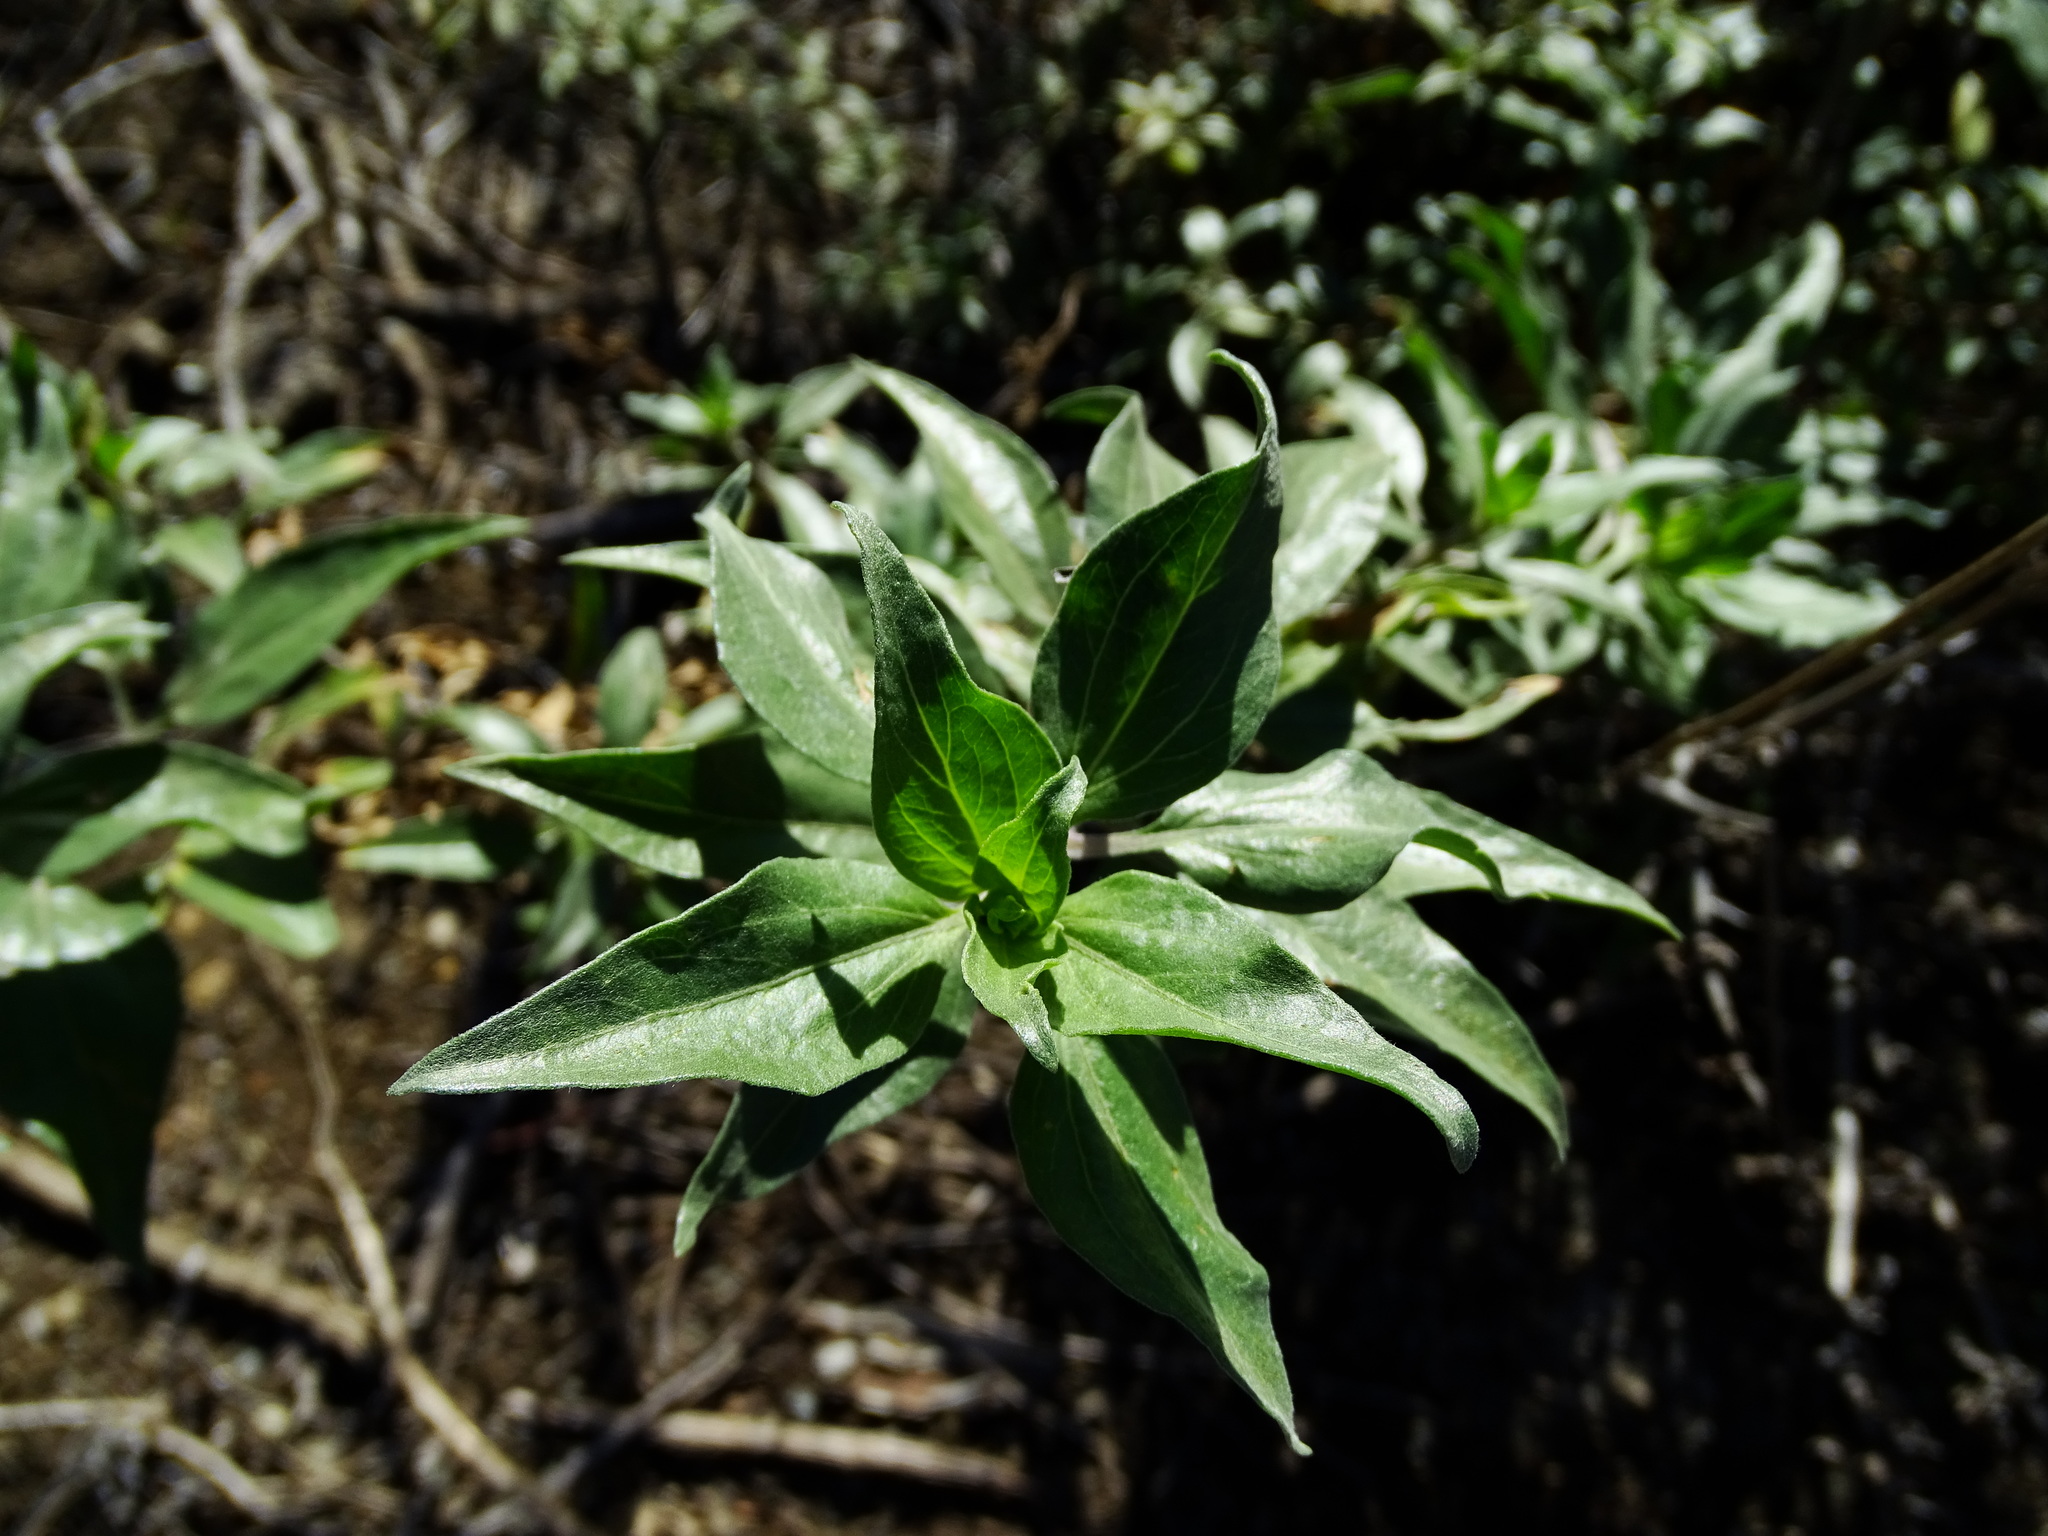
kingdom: Plantae
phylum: Tracheophyta
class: Magnoliopsida
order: Asterales
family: Asteraceae
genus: Encelia
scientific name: Encelia californica
